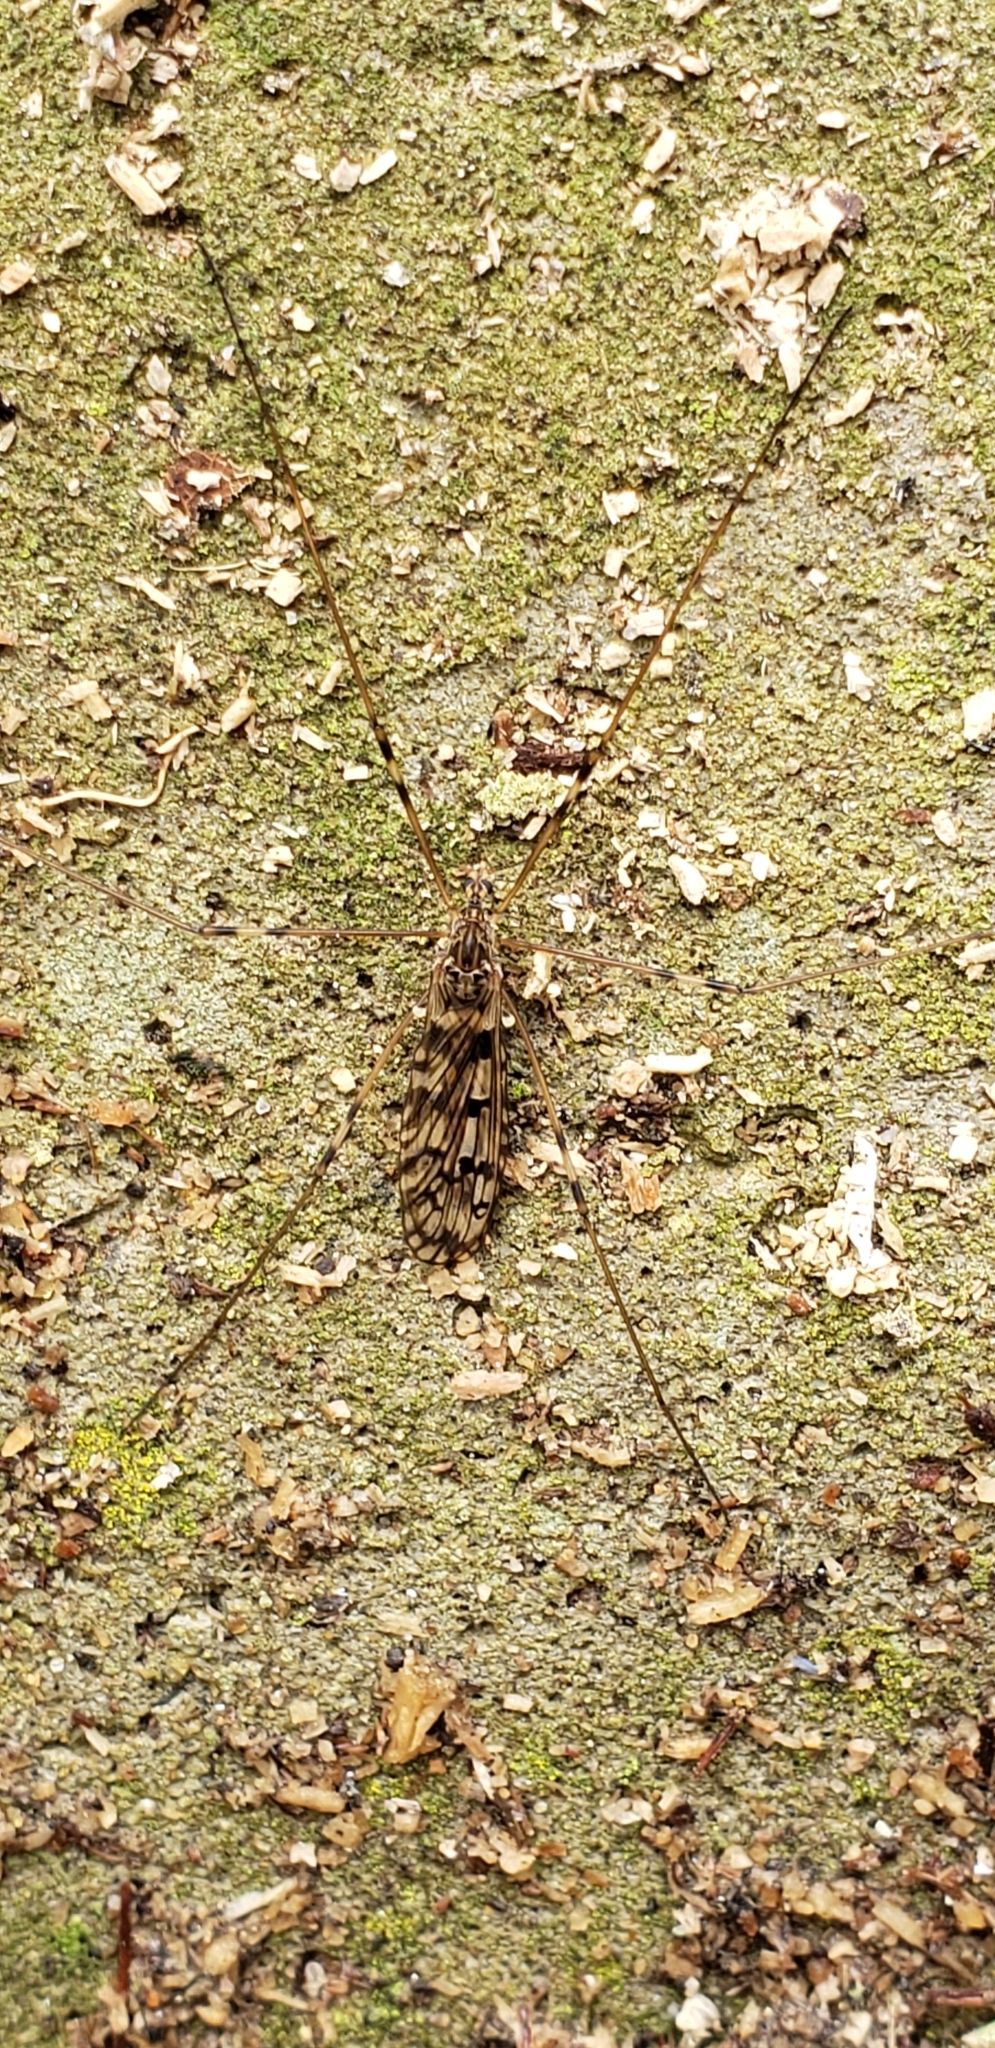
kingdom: Animalia
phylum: Arthropoda
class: Insecta
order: Diptera
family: Limoniidae
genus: Limonia
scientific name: Limonia cinctipes
